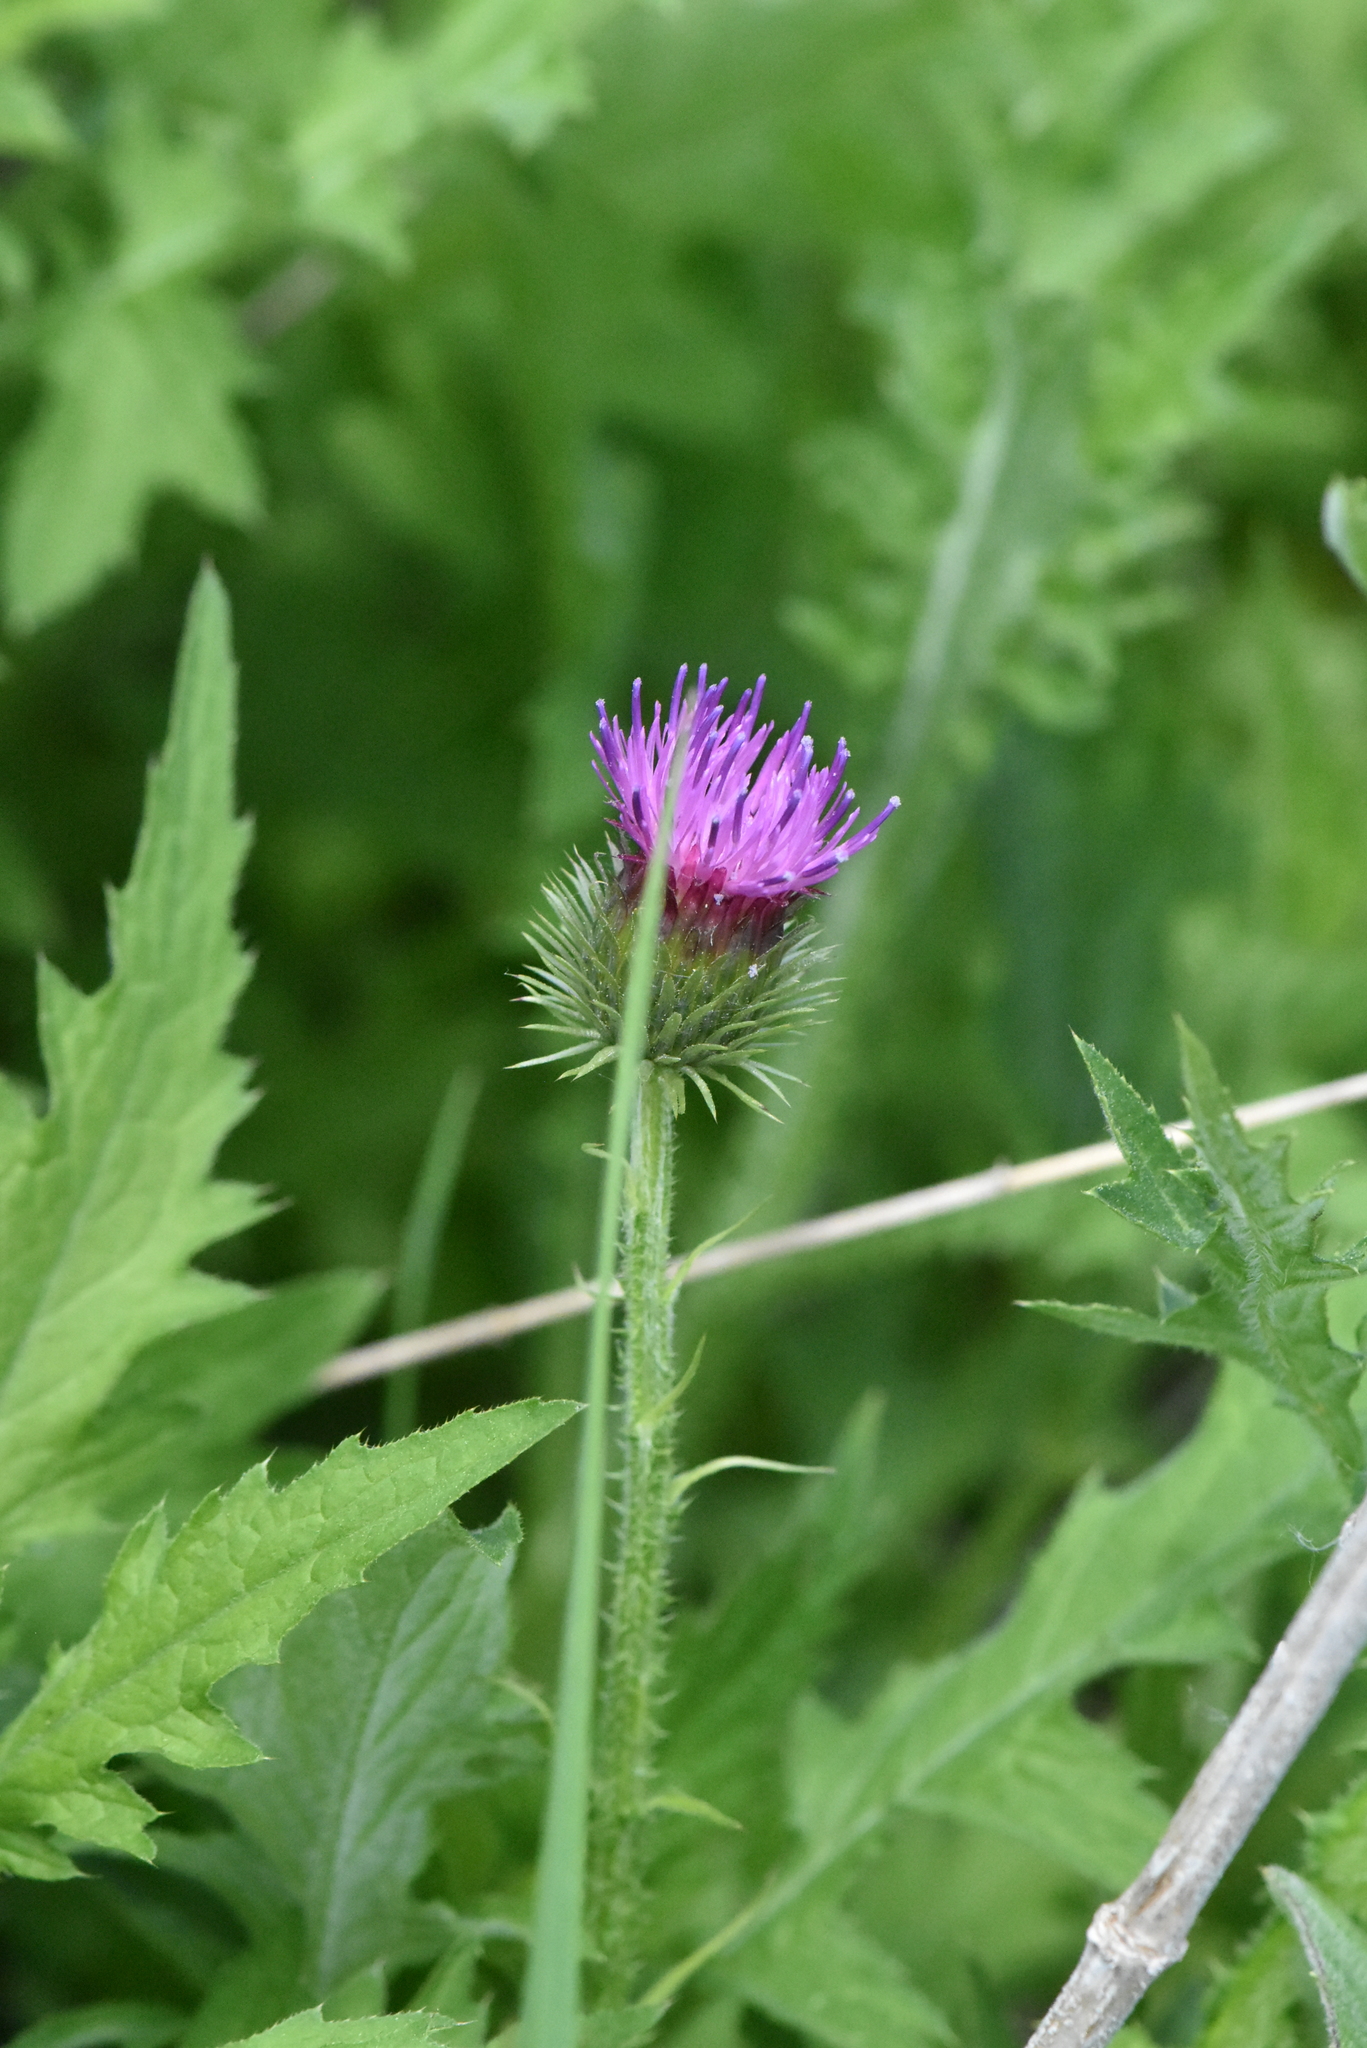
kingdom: Plantae
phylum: Tracheophyta
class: Magnoliopsida
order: Asterales
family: Asteraceae
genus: Carduus
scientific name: Carduus crispus
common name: Welted thistle
